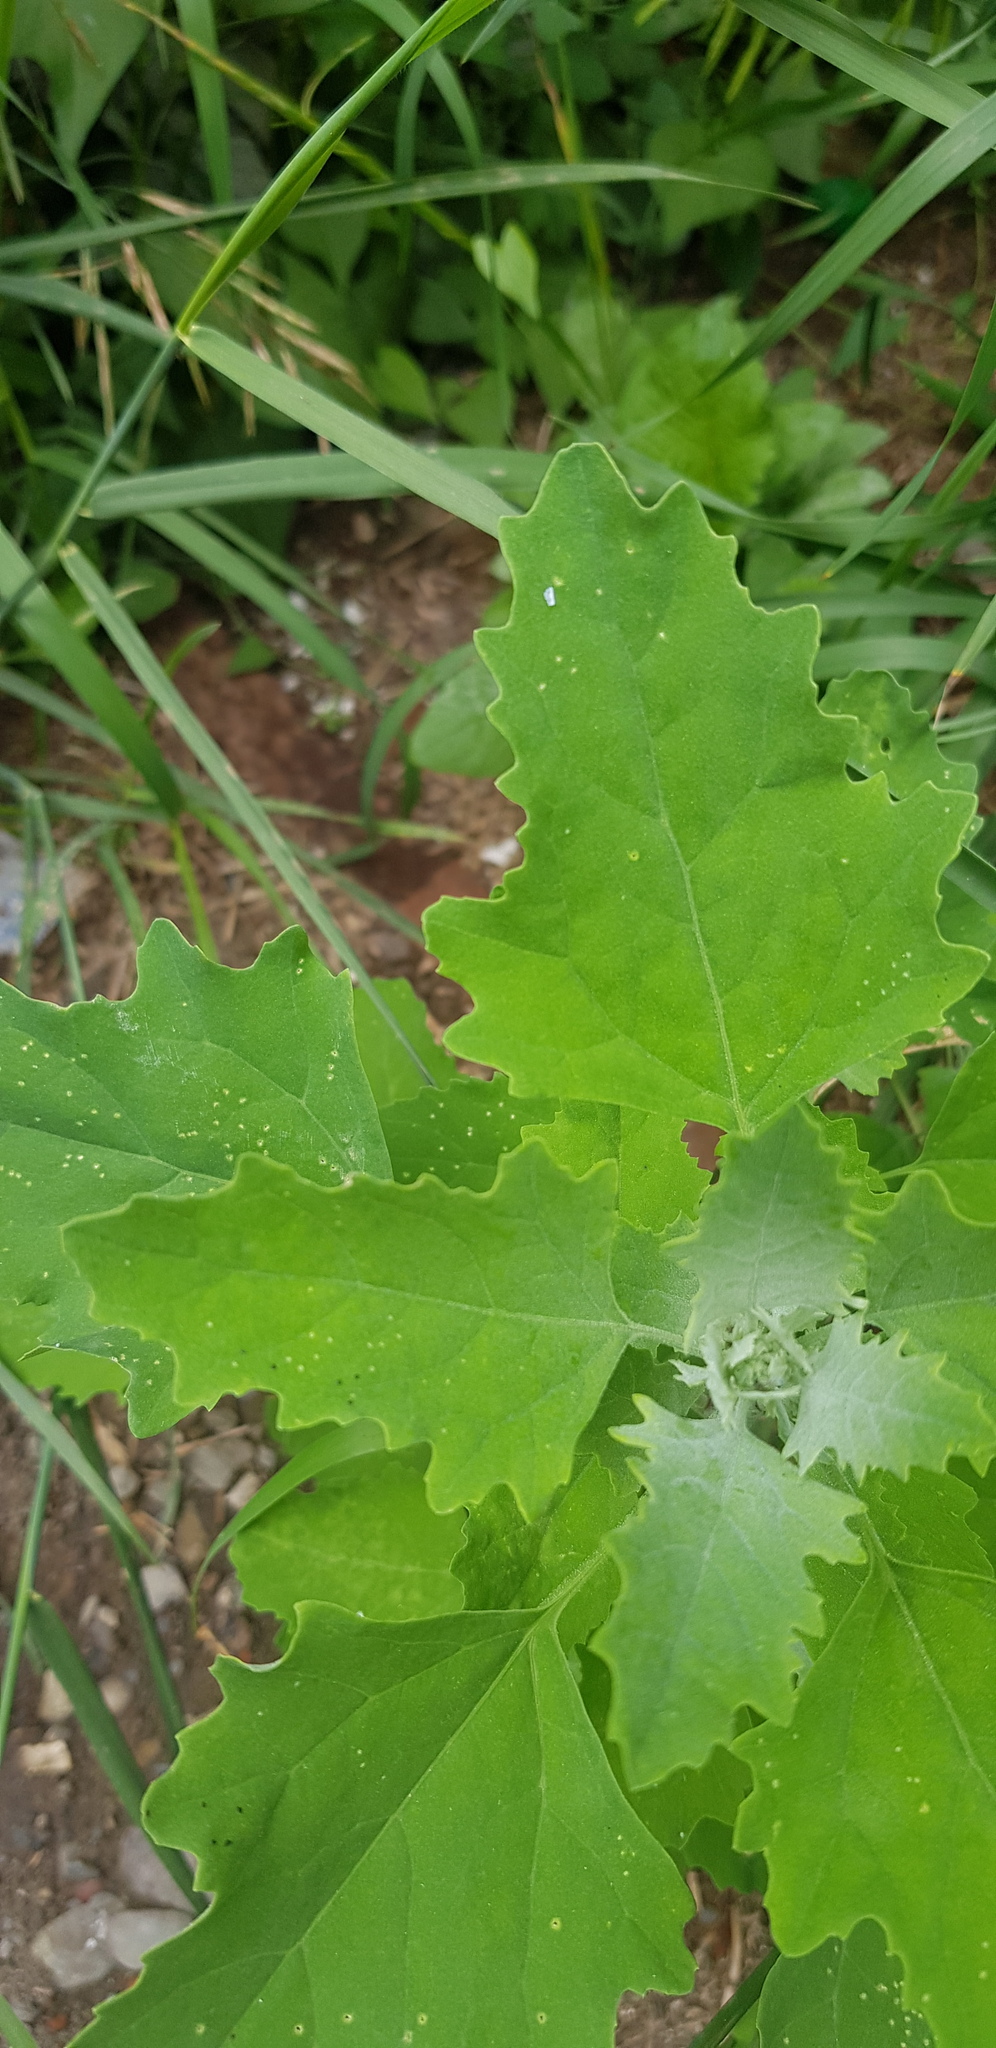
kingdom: Plantae
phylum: Tracheophyta
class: Magnoliopsida
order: Caryophyllales
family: Amaranthaceae
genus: Chenopodium
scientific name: Chenopodium album
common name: Fat-hen
